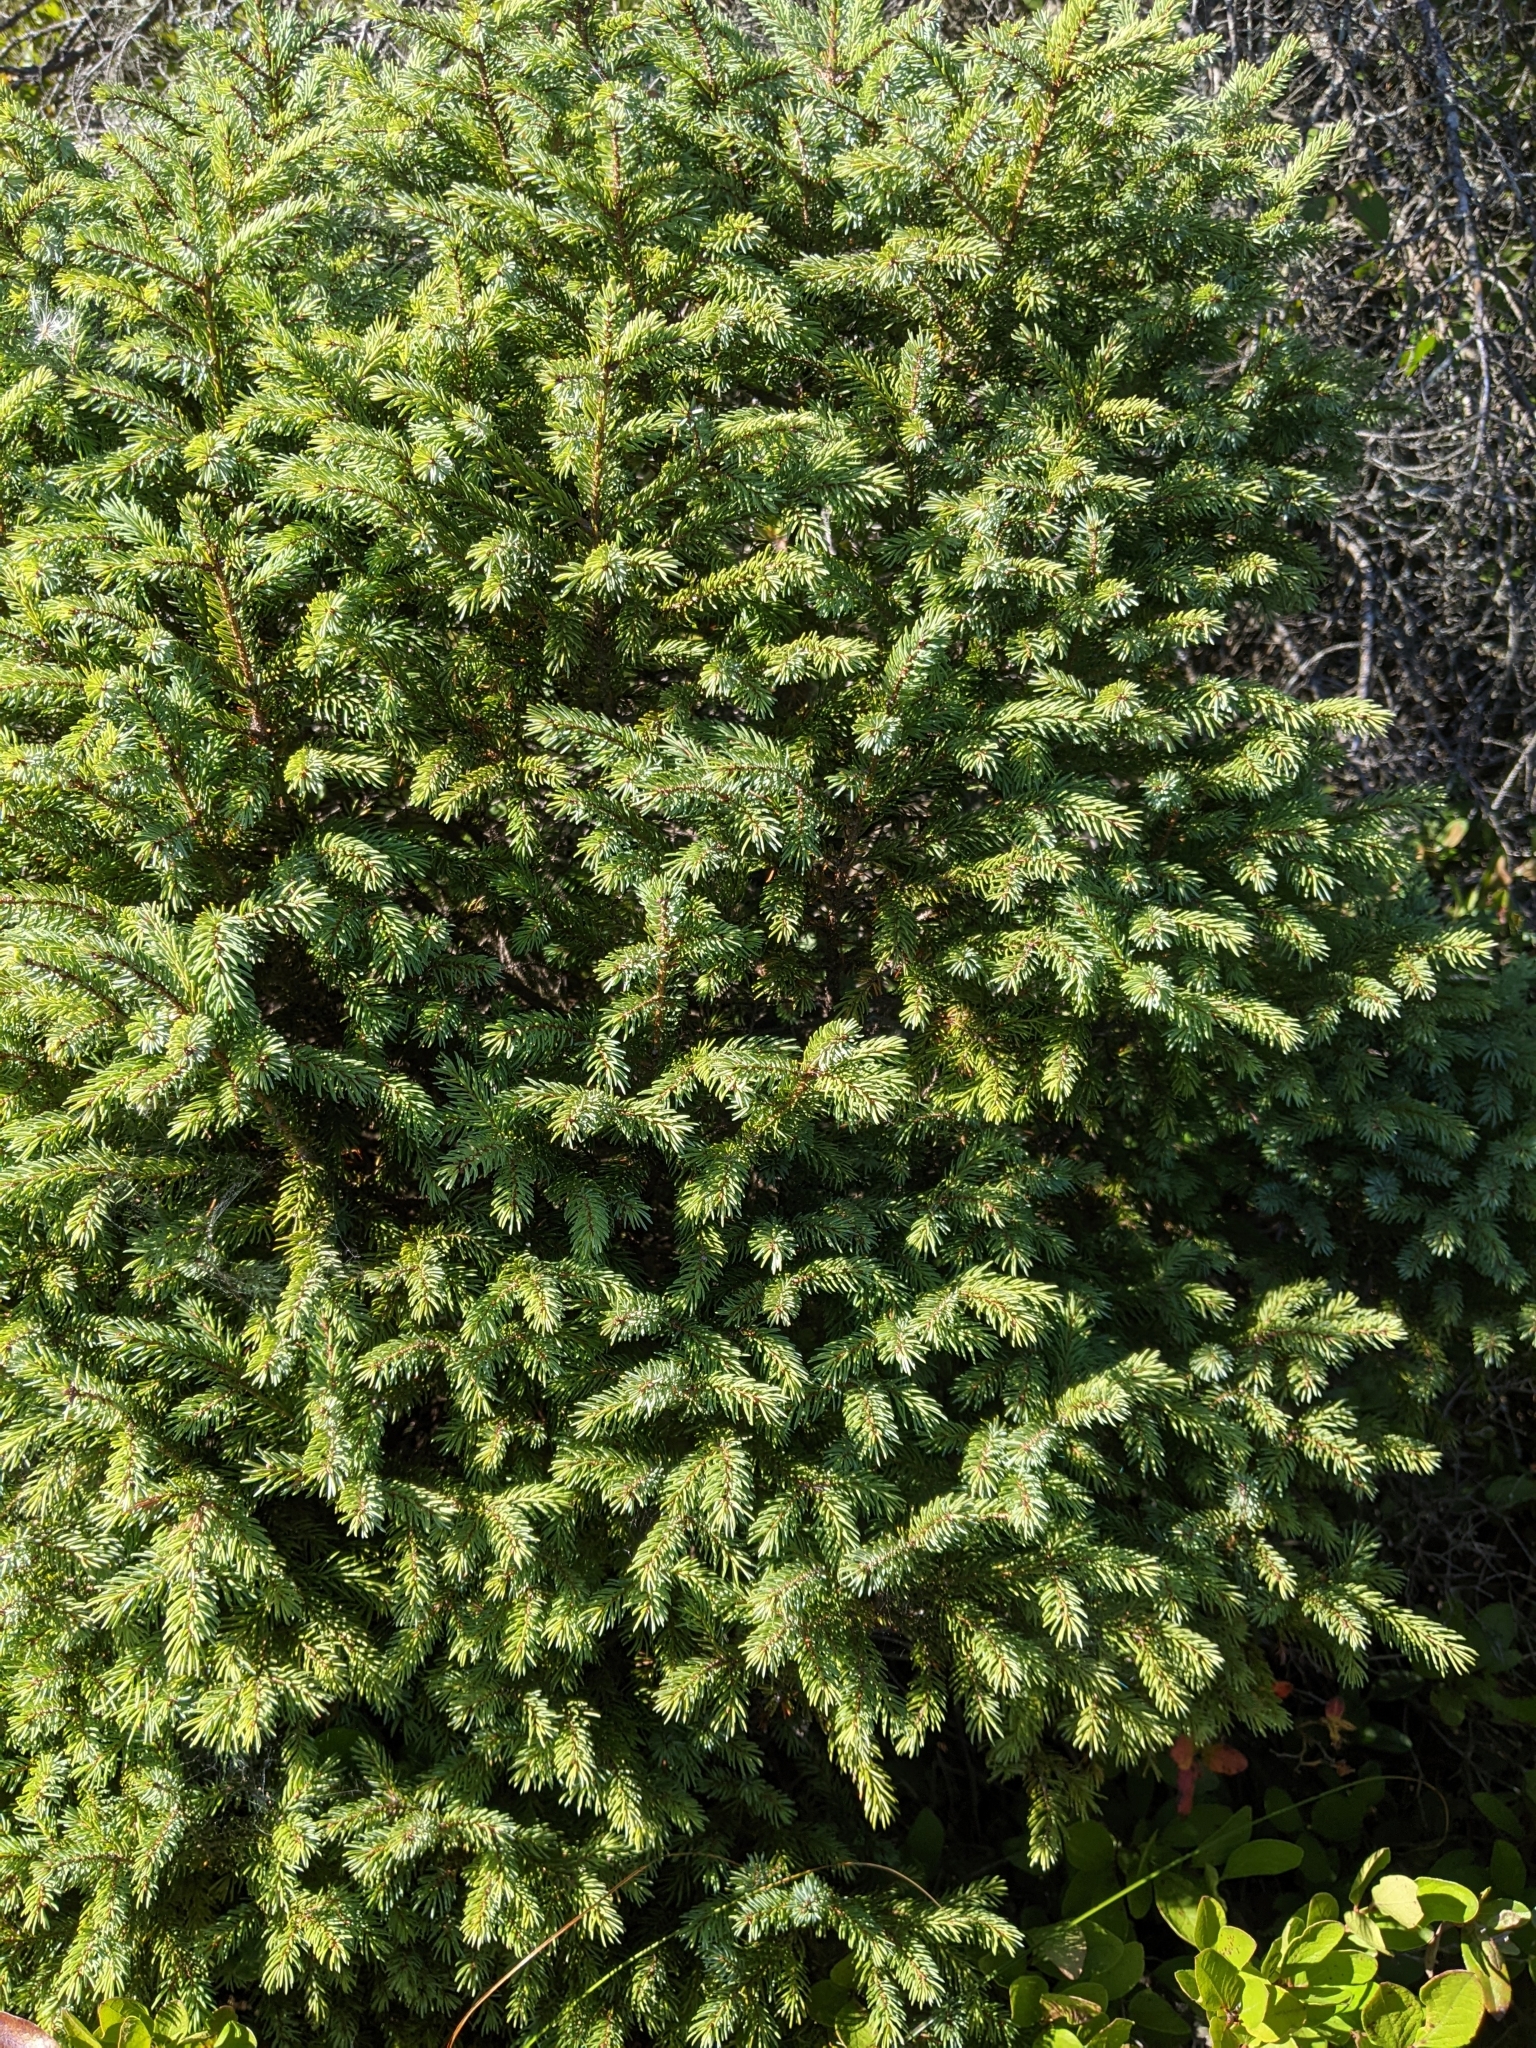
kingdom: Plantae
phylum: Tracheophyta
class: Pinopsida
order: Pinales
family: Pinaceae
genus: Picea
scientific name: Picea mariana
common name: Black spruce
